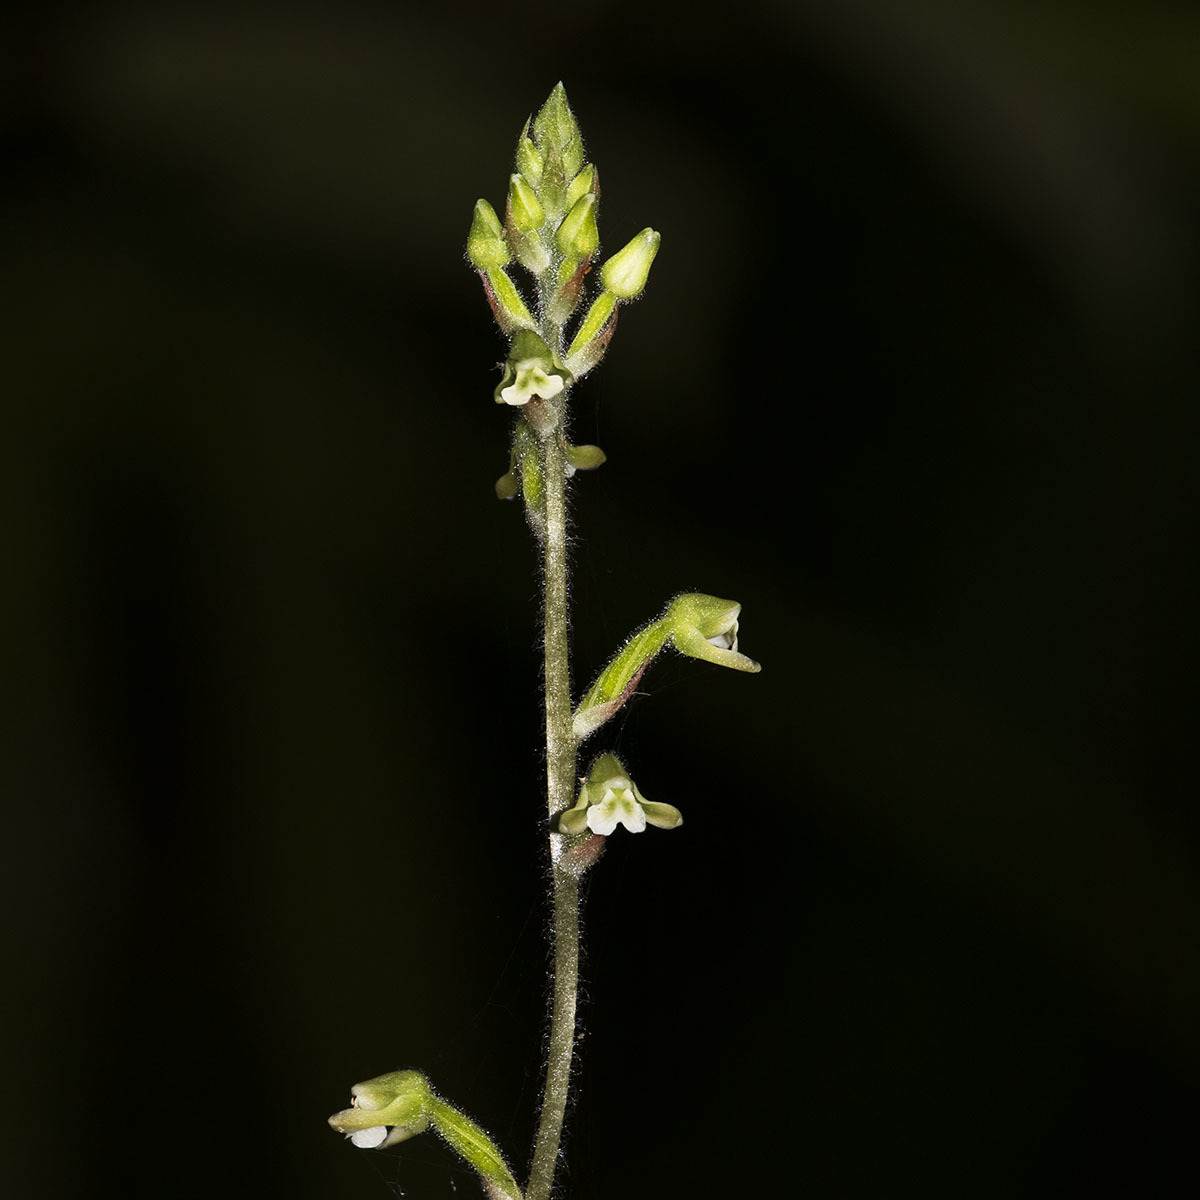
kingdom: Plantae
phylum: Tracheophyta
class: Liliopsida
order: Asparagales
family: Orchidaceae
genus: Zeuxine
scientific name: Zeuxine rolfeana
